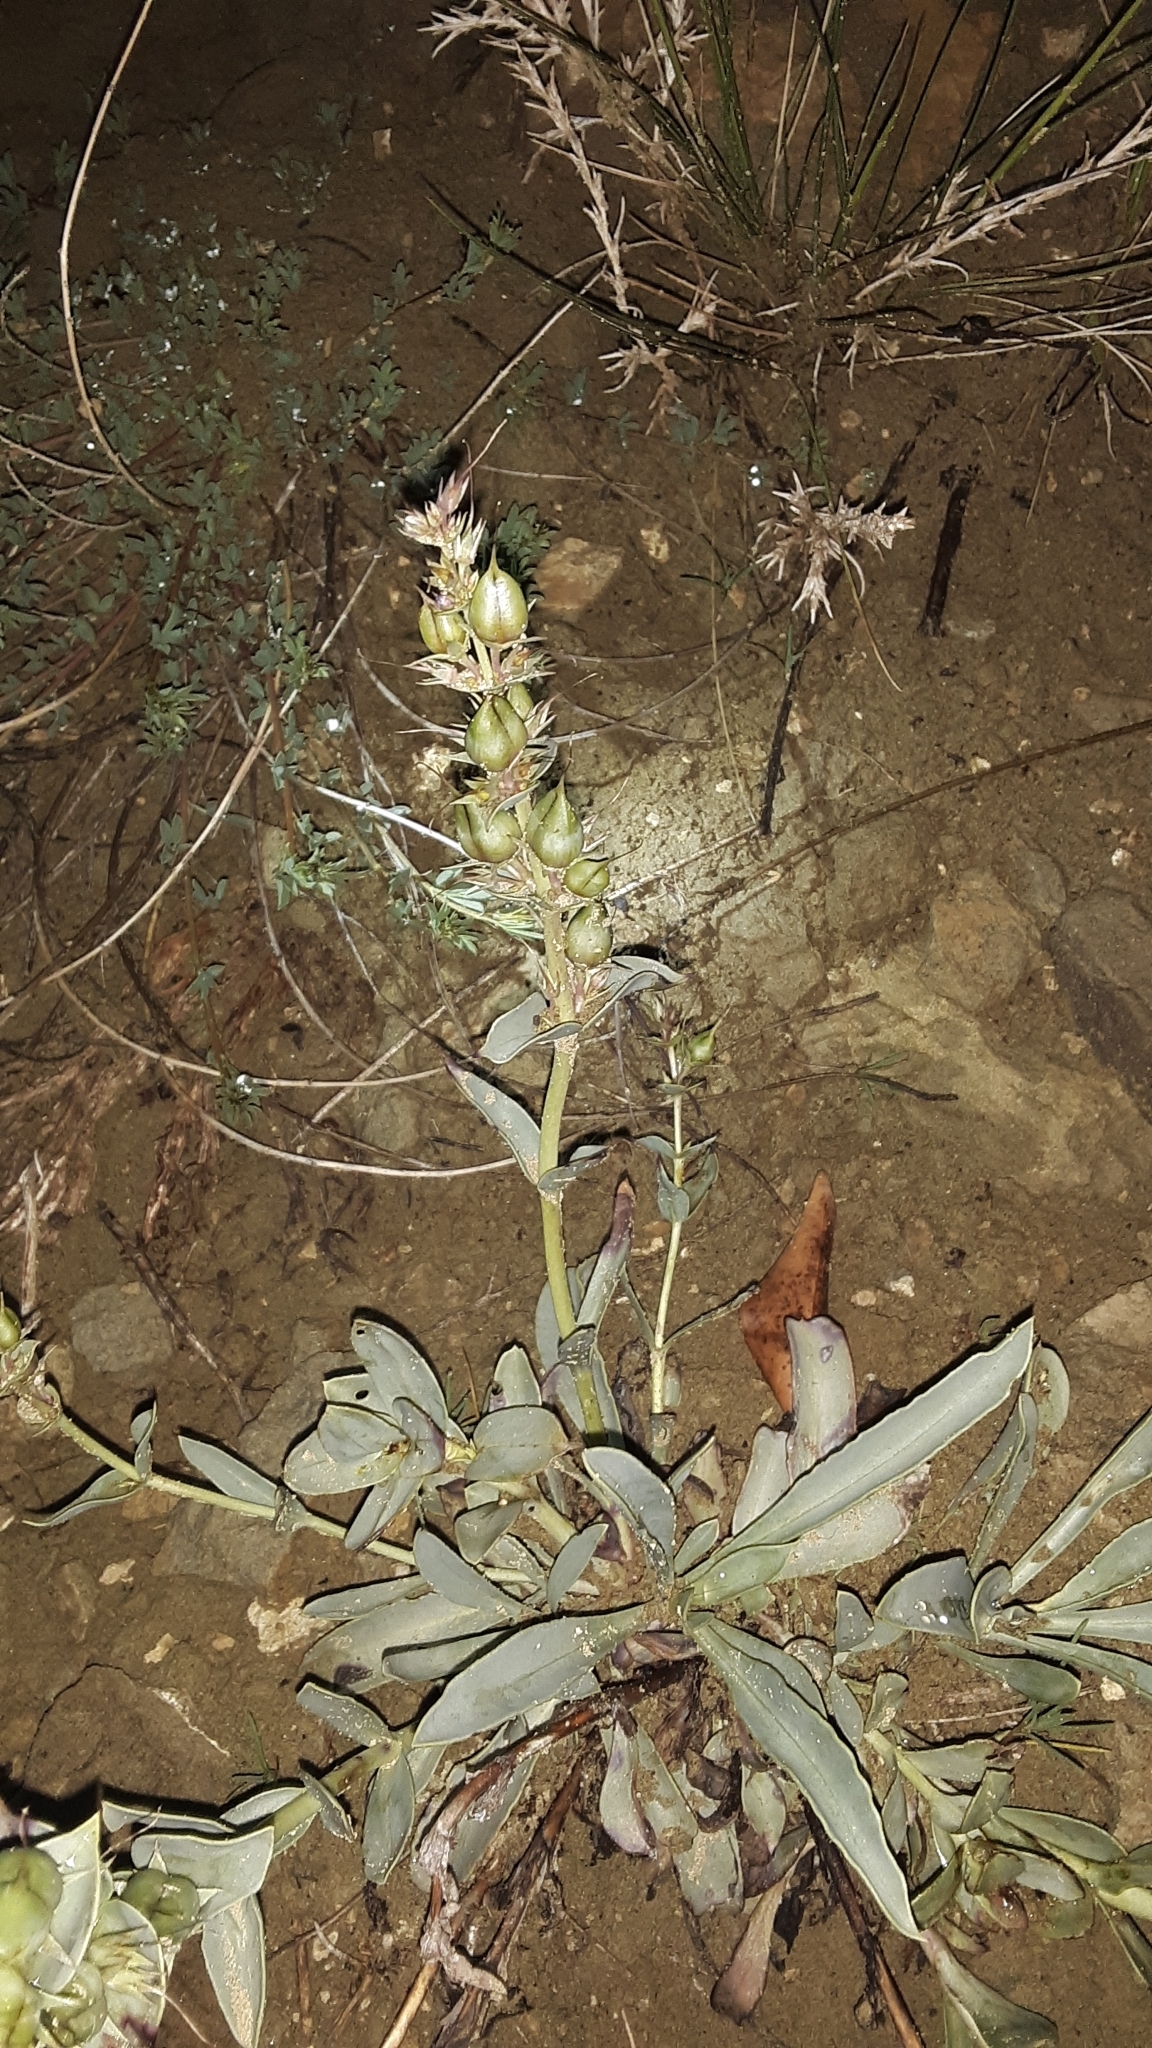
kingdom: Plantae
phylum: Tracheophyta
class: Magnoliopsida
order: Lamiales
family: Plantaginaceae
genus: Penstemon
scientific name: Penstemon nitidus
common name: Shining penstemon
